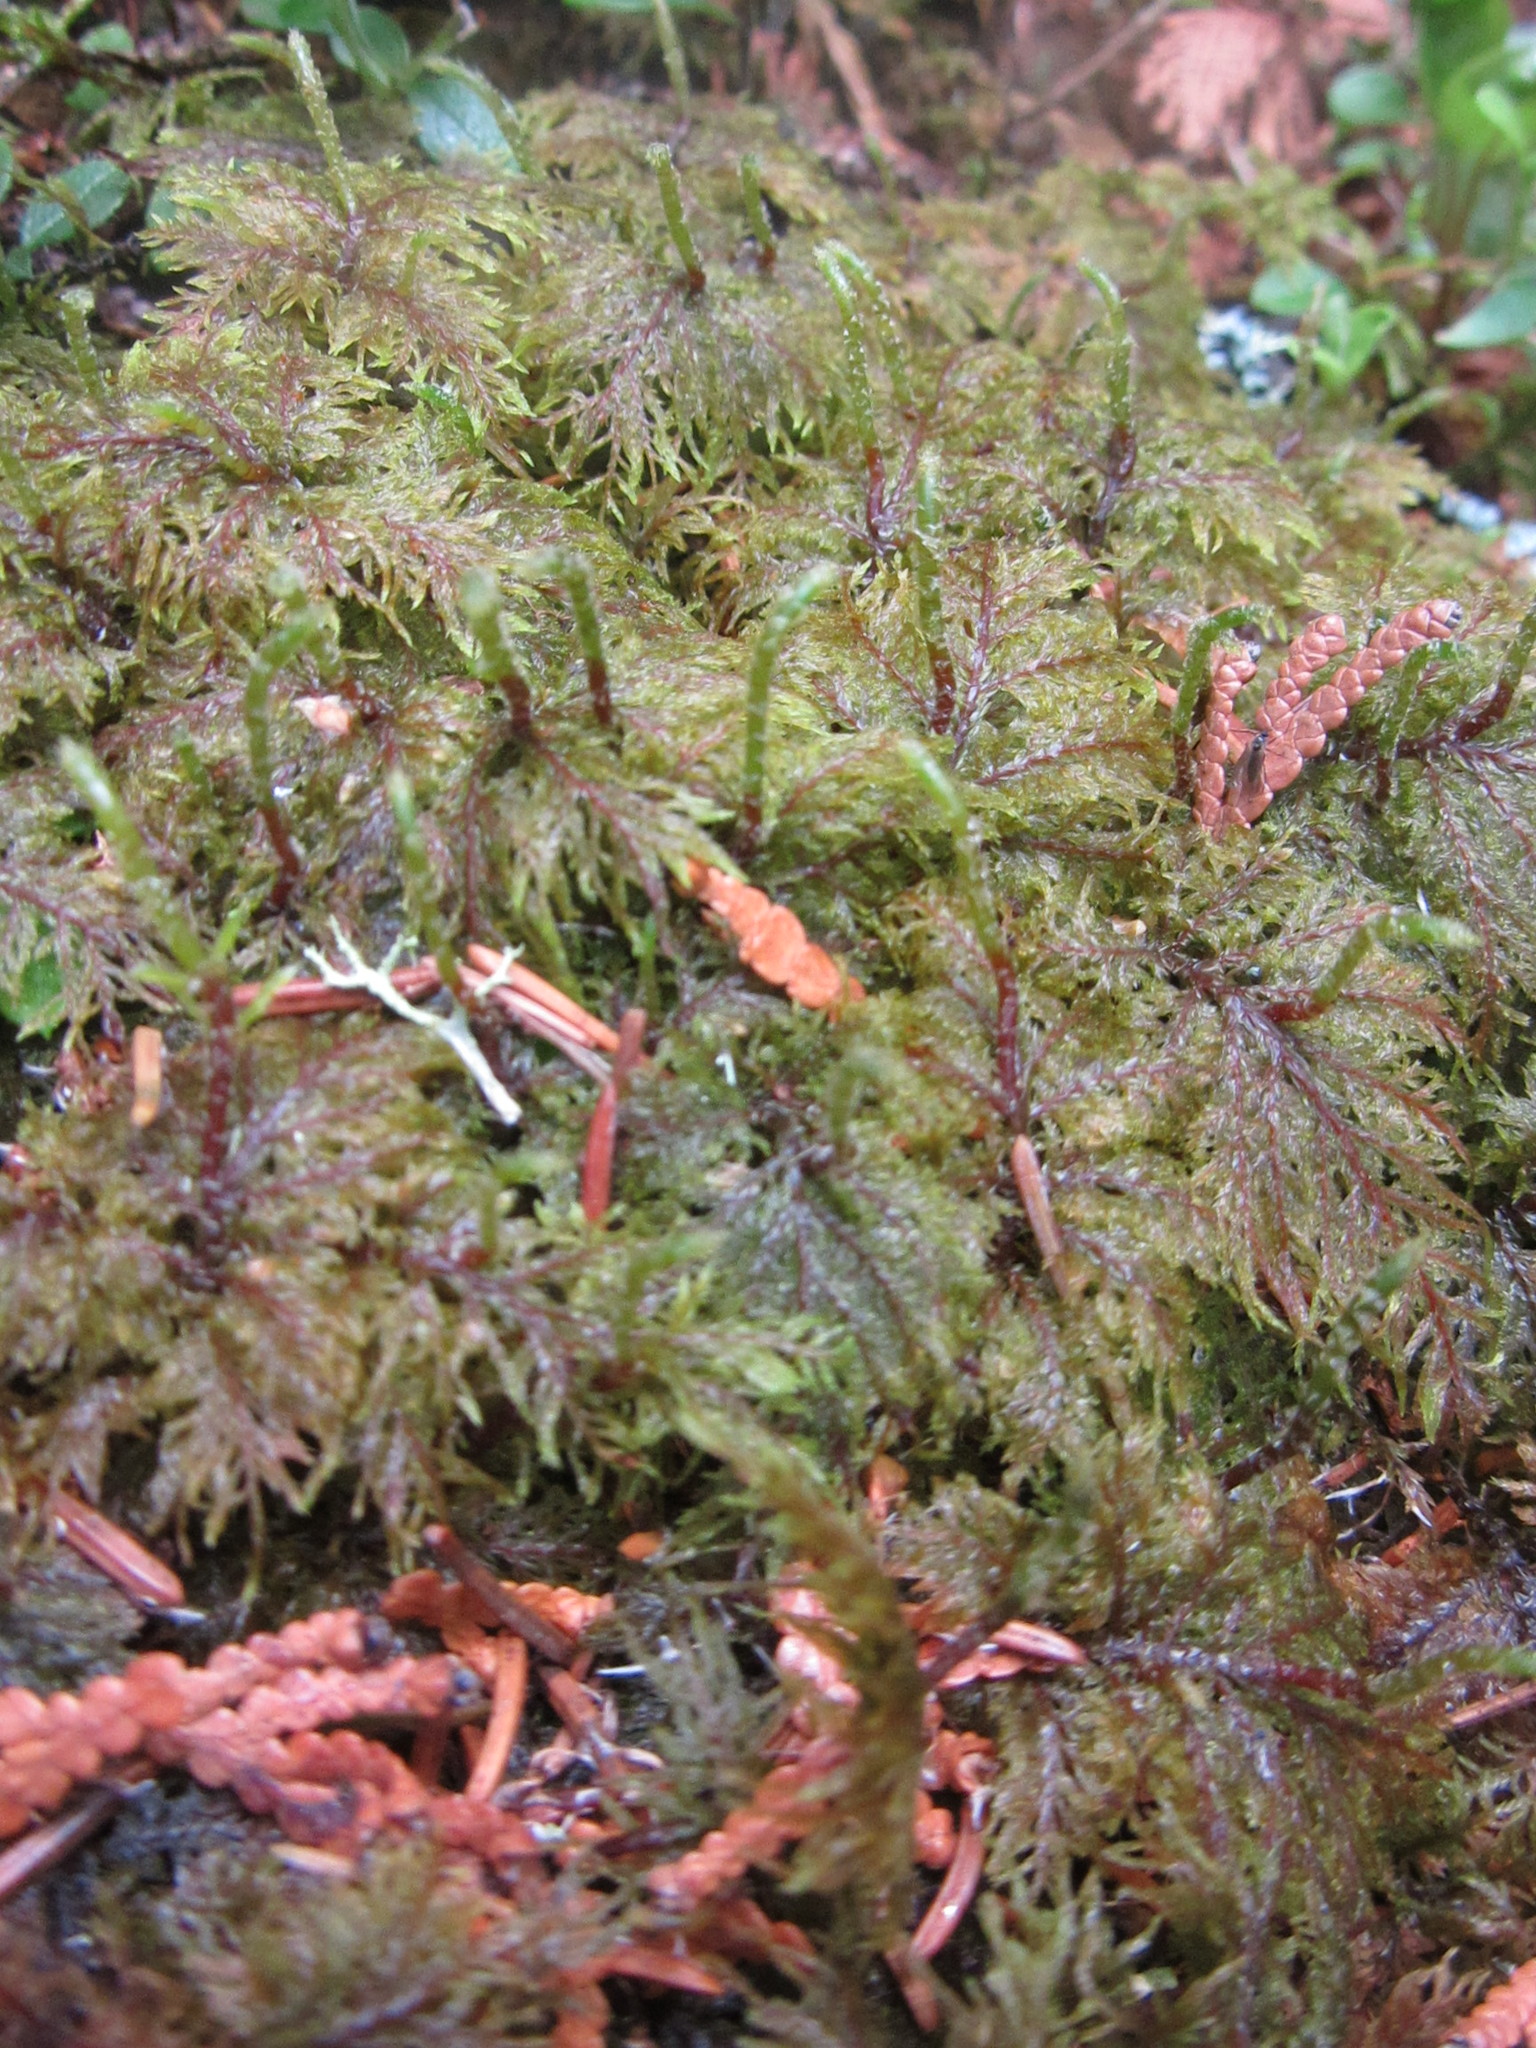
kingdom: Plantae
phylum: Bryophyta
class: Bryopsida
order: Hypnales
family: Hylocomiaceae
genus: Hylocomium
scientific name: Hylocomium splendens
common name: Stairstep moss
